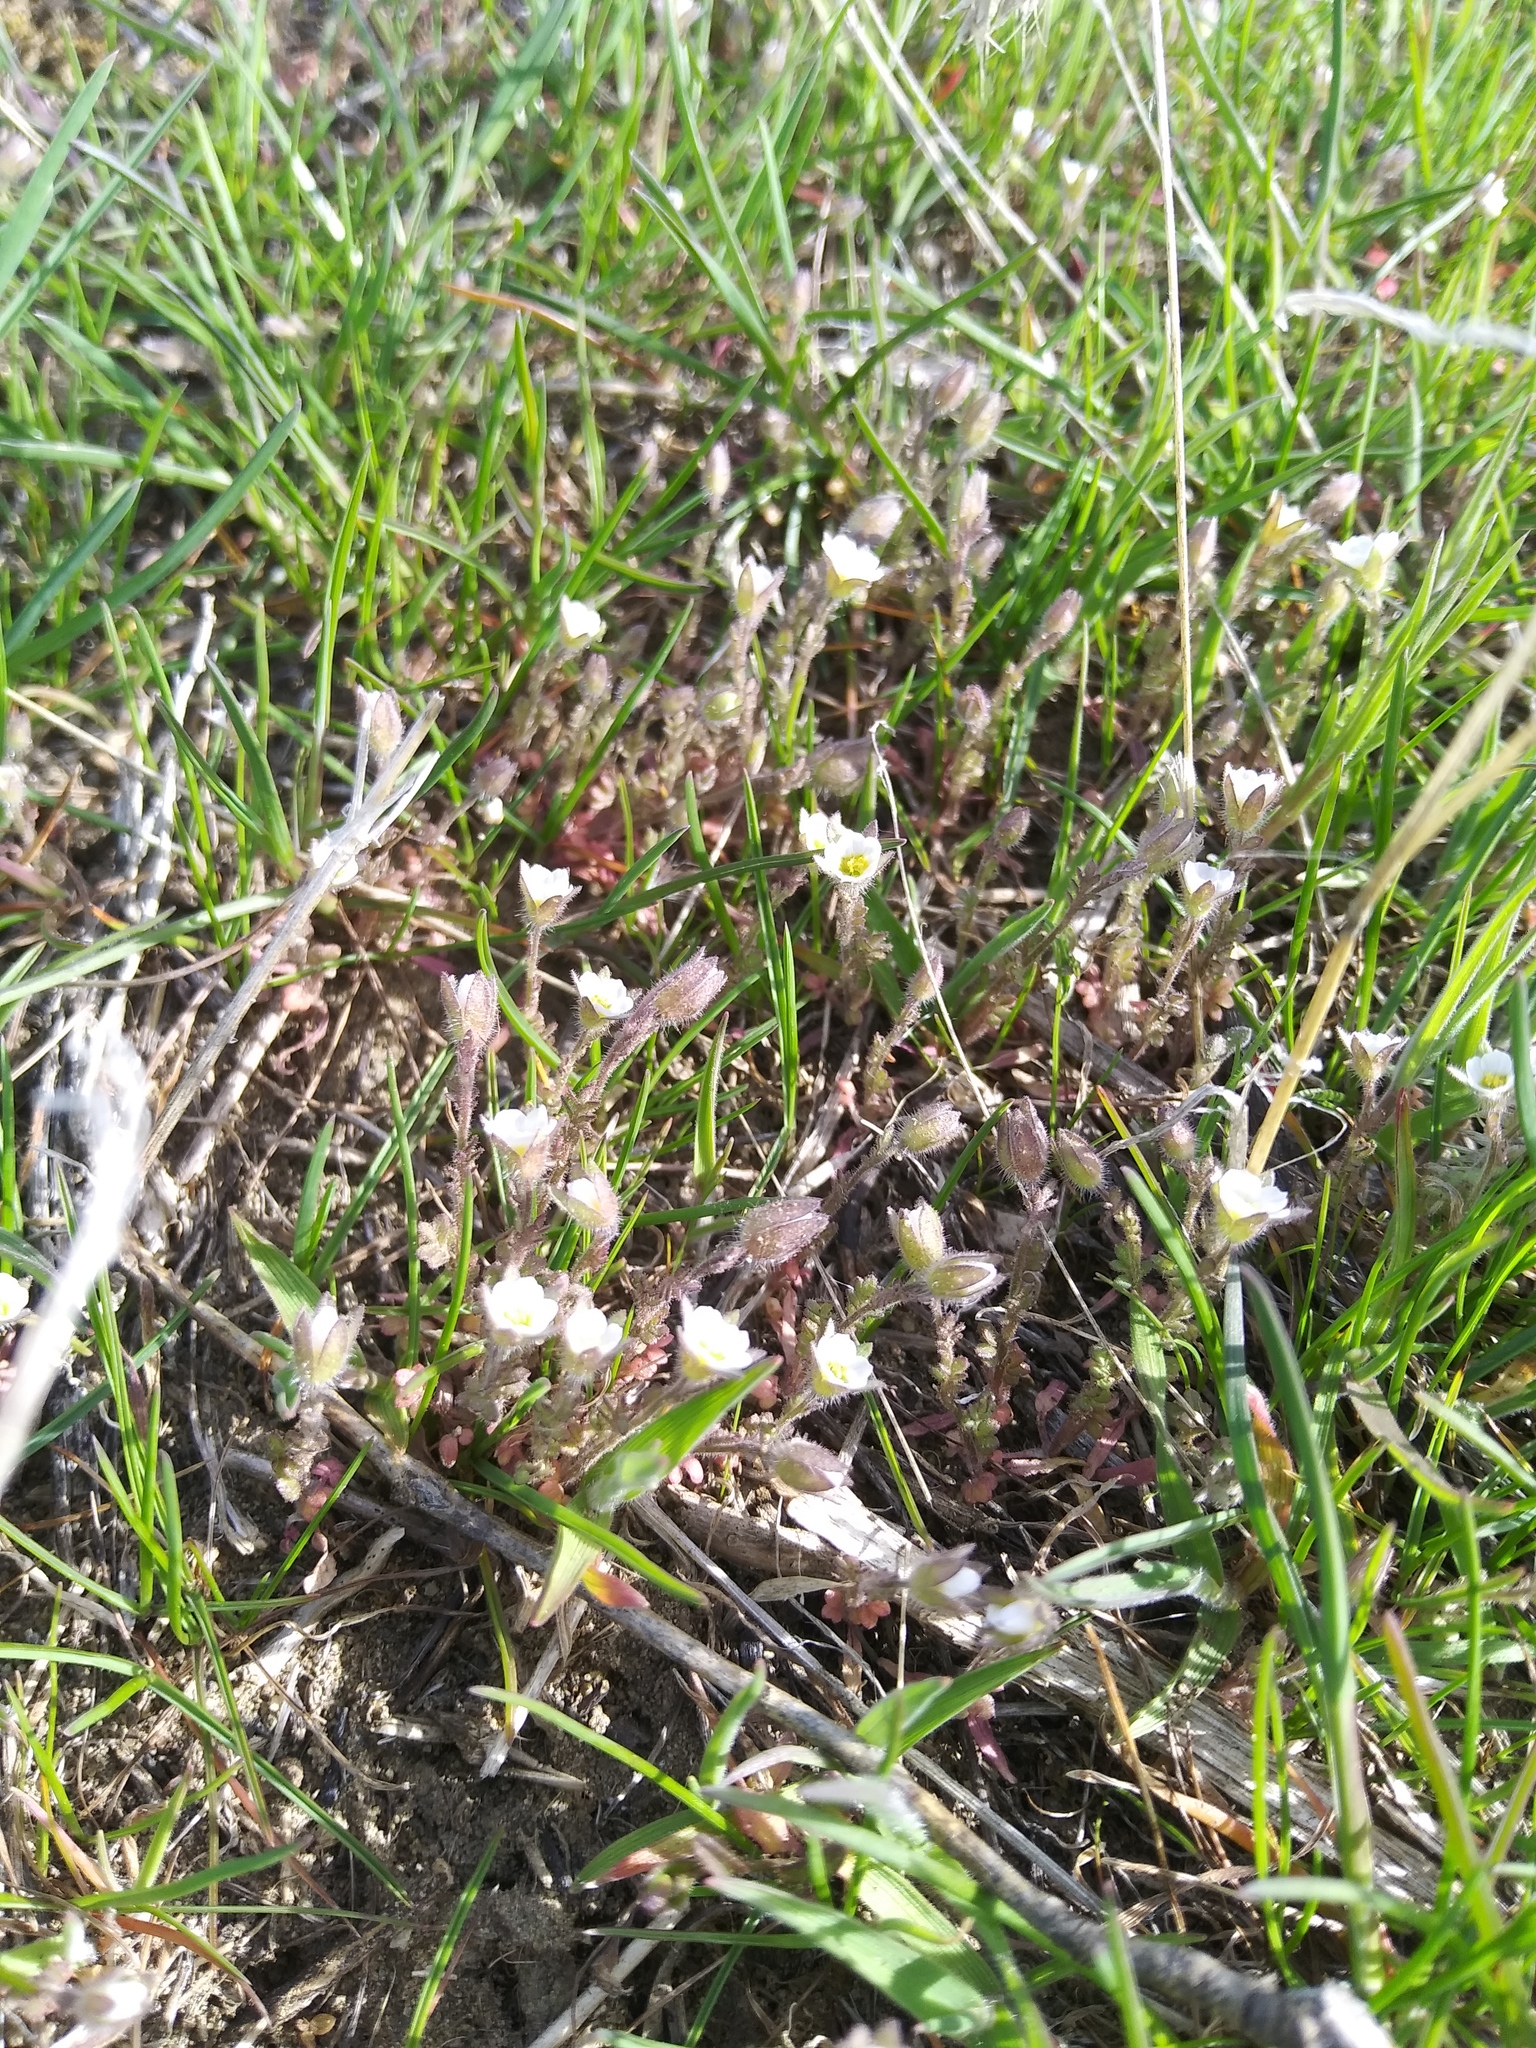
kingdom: Plantae
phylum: Tracheophyta
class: Magnoliopsida
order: Ericales
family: Polemoniaceae
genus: Polemonium
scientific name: Polemonium micranthum
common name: Annual jacob's-ladder
